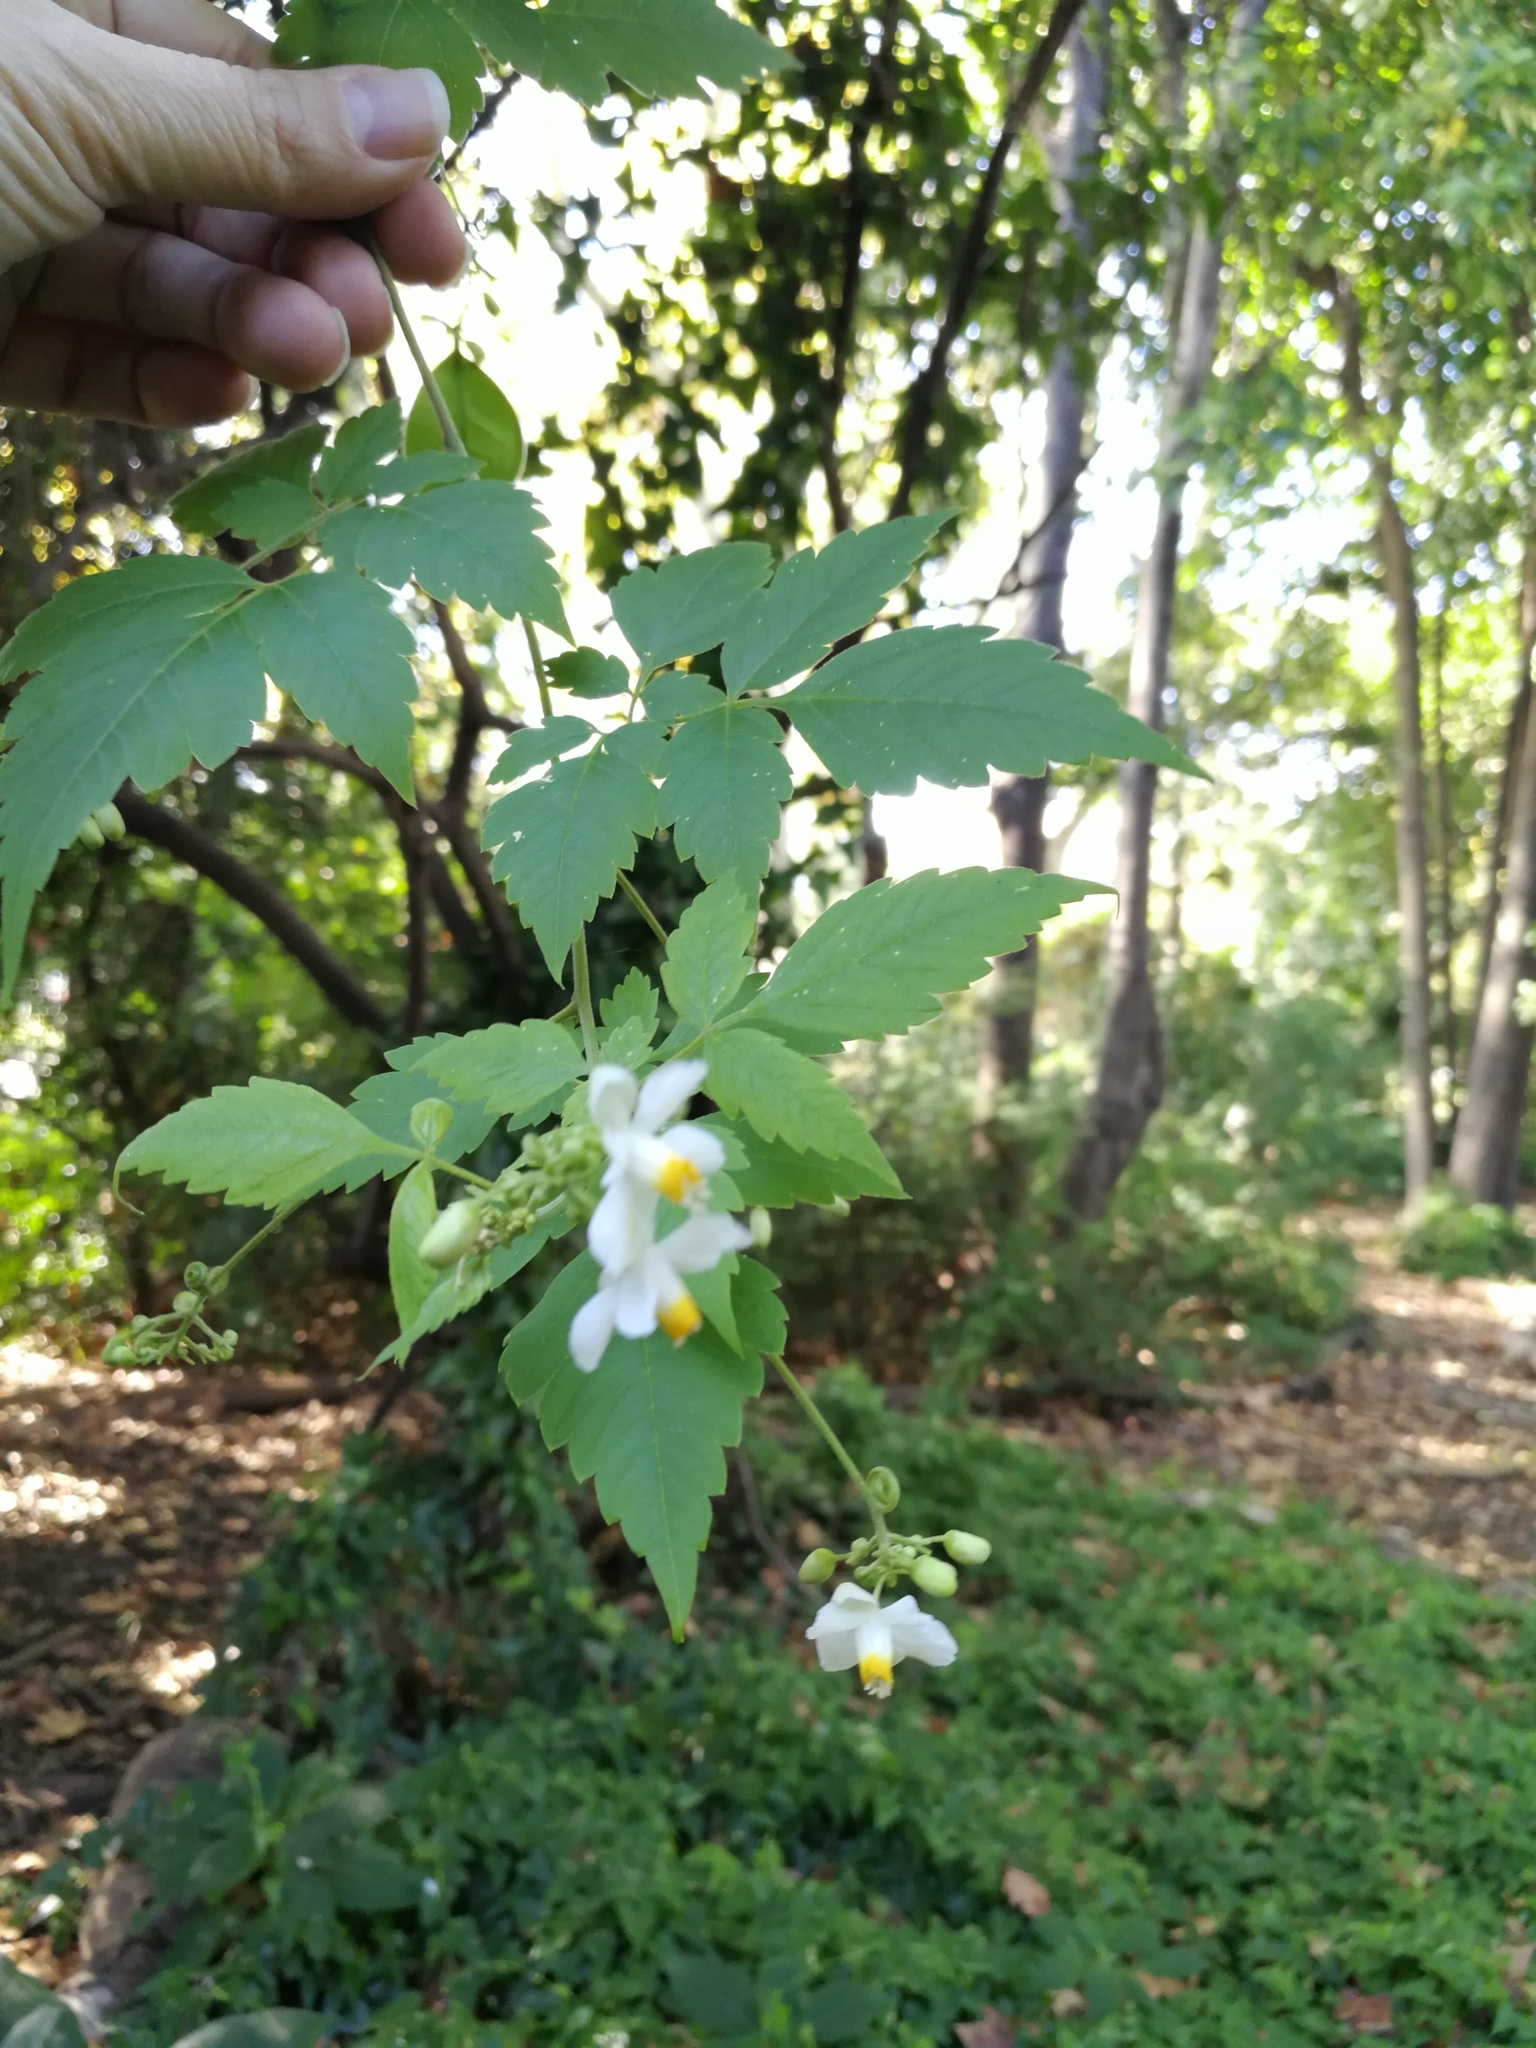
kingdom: Plantae
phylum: Tracheophyta
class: Magnoliopsida
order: Sapindales
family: Sapindaceae
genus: Cardiospermum
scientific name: Cardiospermum grandiflorum
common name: Balloon vine
